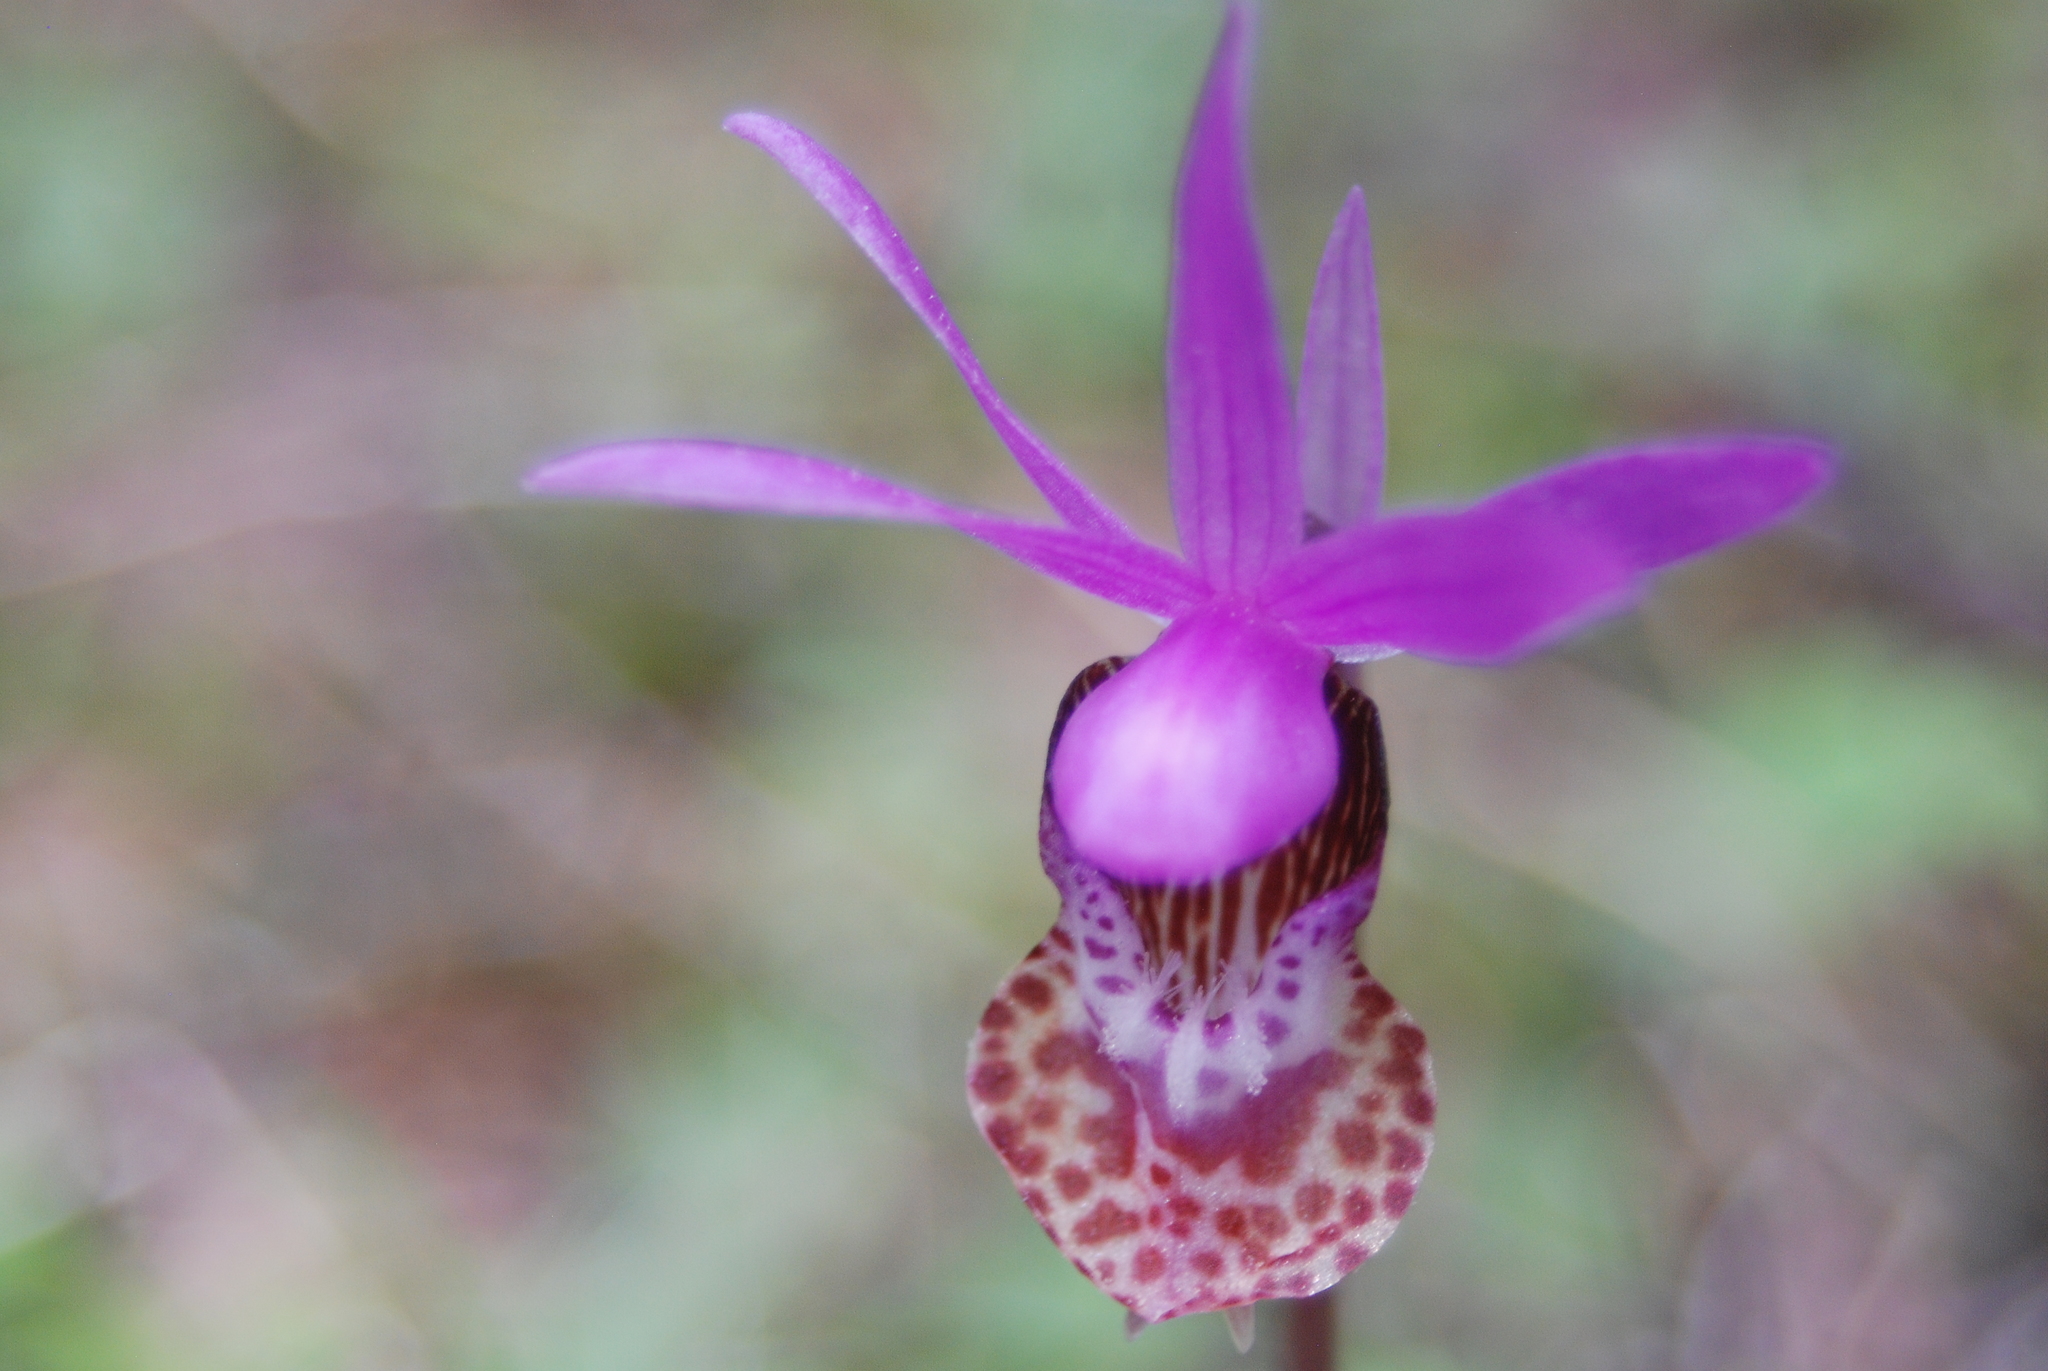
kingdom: Plantae
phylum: Tracheophyta
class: Liliopsida
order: Asparagales
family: Orchidaceae
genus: Calypso
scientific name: Calypso bulbosa
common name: Calypso
